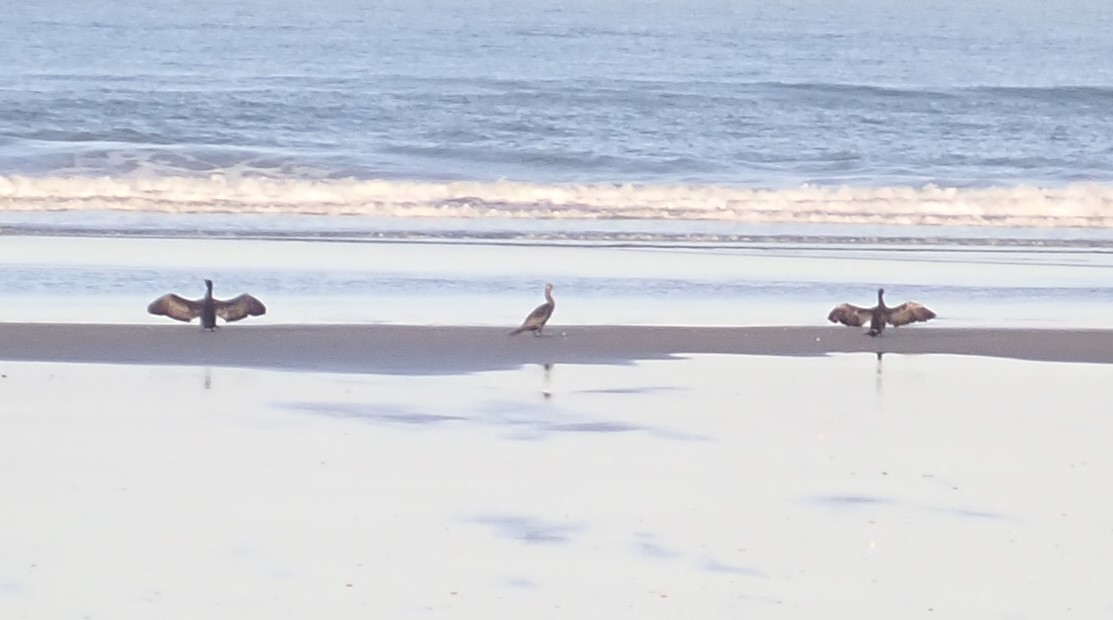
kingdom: Animalia
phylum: Chordata
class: Aves
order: Suliformes
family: Phalacrocoracidae
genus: Phalacrocorax
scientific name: Phalacrocorax carbo
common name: Great cormorant
